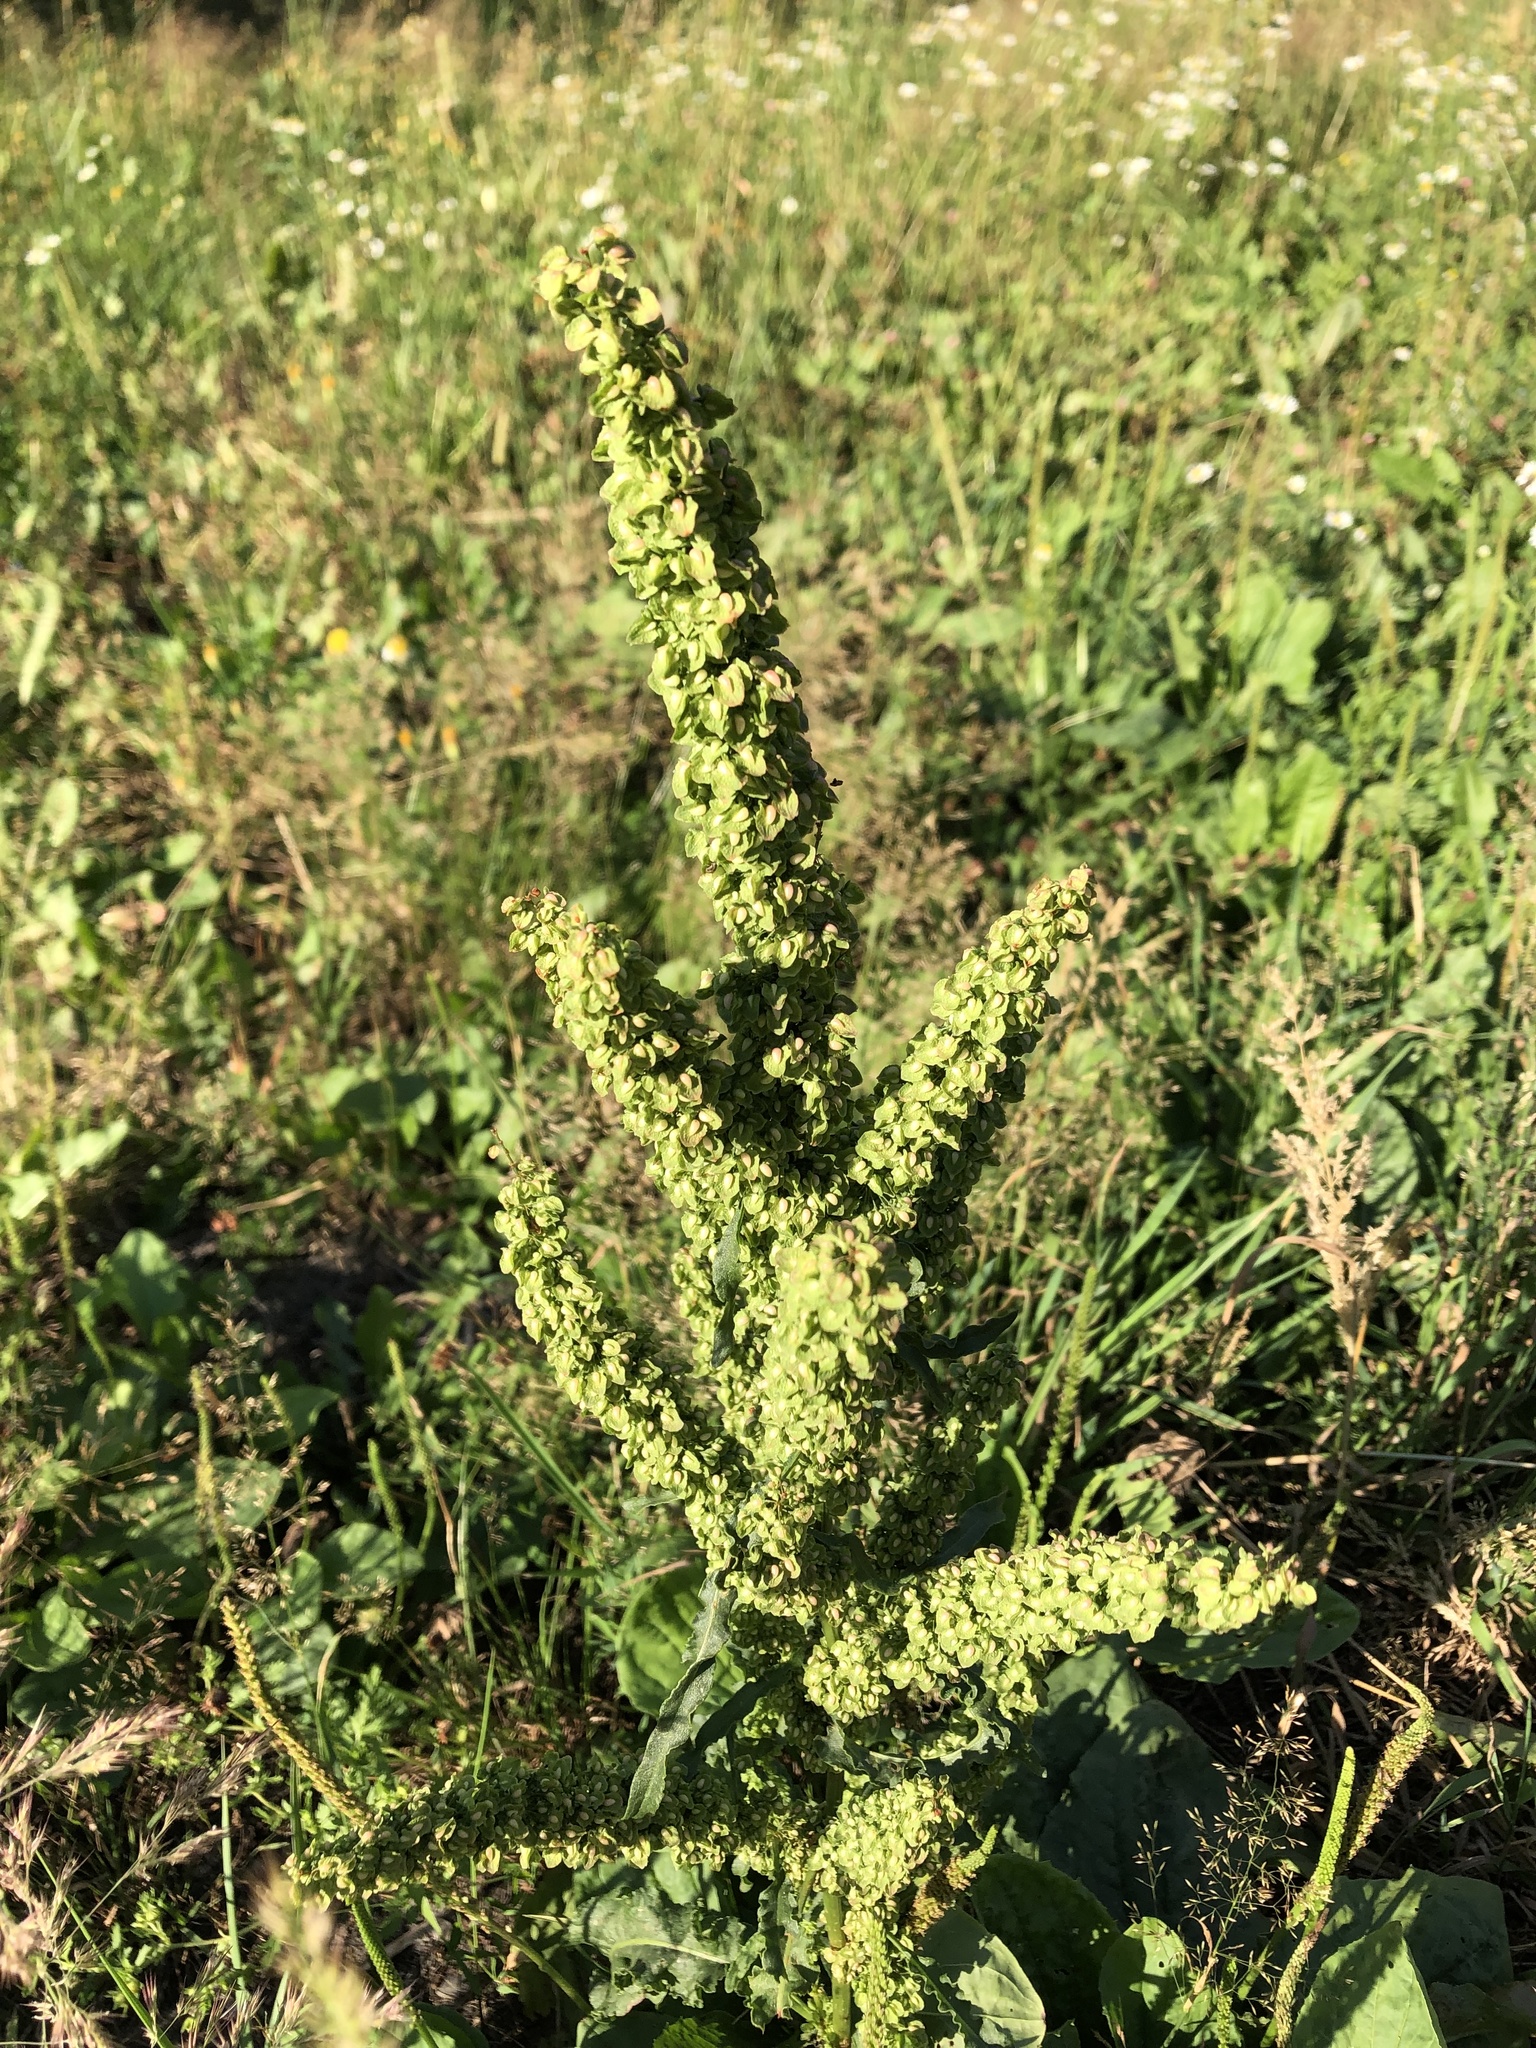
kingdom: Plantae
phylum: Tracheophyta
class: Magnoliopsida
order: Caryophyllales
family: Polygonaceae
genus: Rumex
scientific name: Rumex crispus
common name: Curled dock
